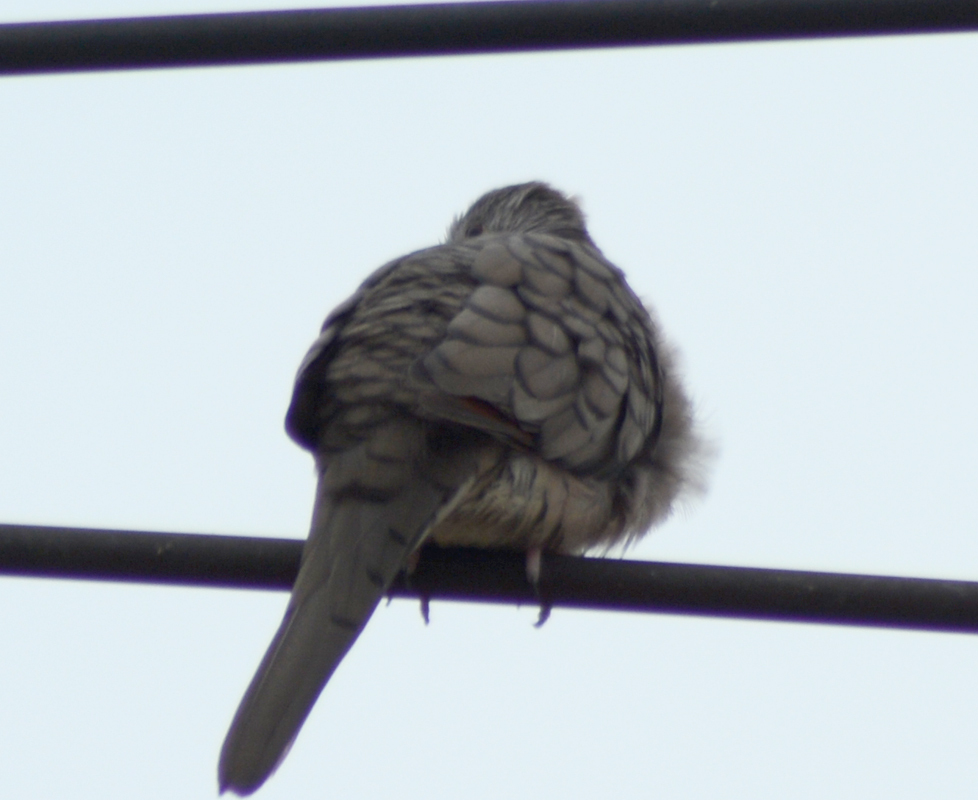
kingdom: Animalia
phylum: Chordata
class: Aves
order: Columbiformes
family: Columbidae
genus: Columbina
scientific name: Columbina inca
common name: Inca dove
